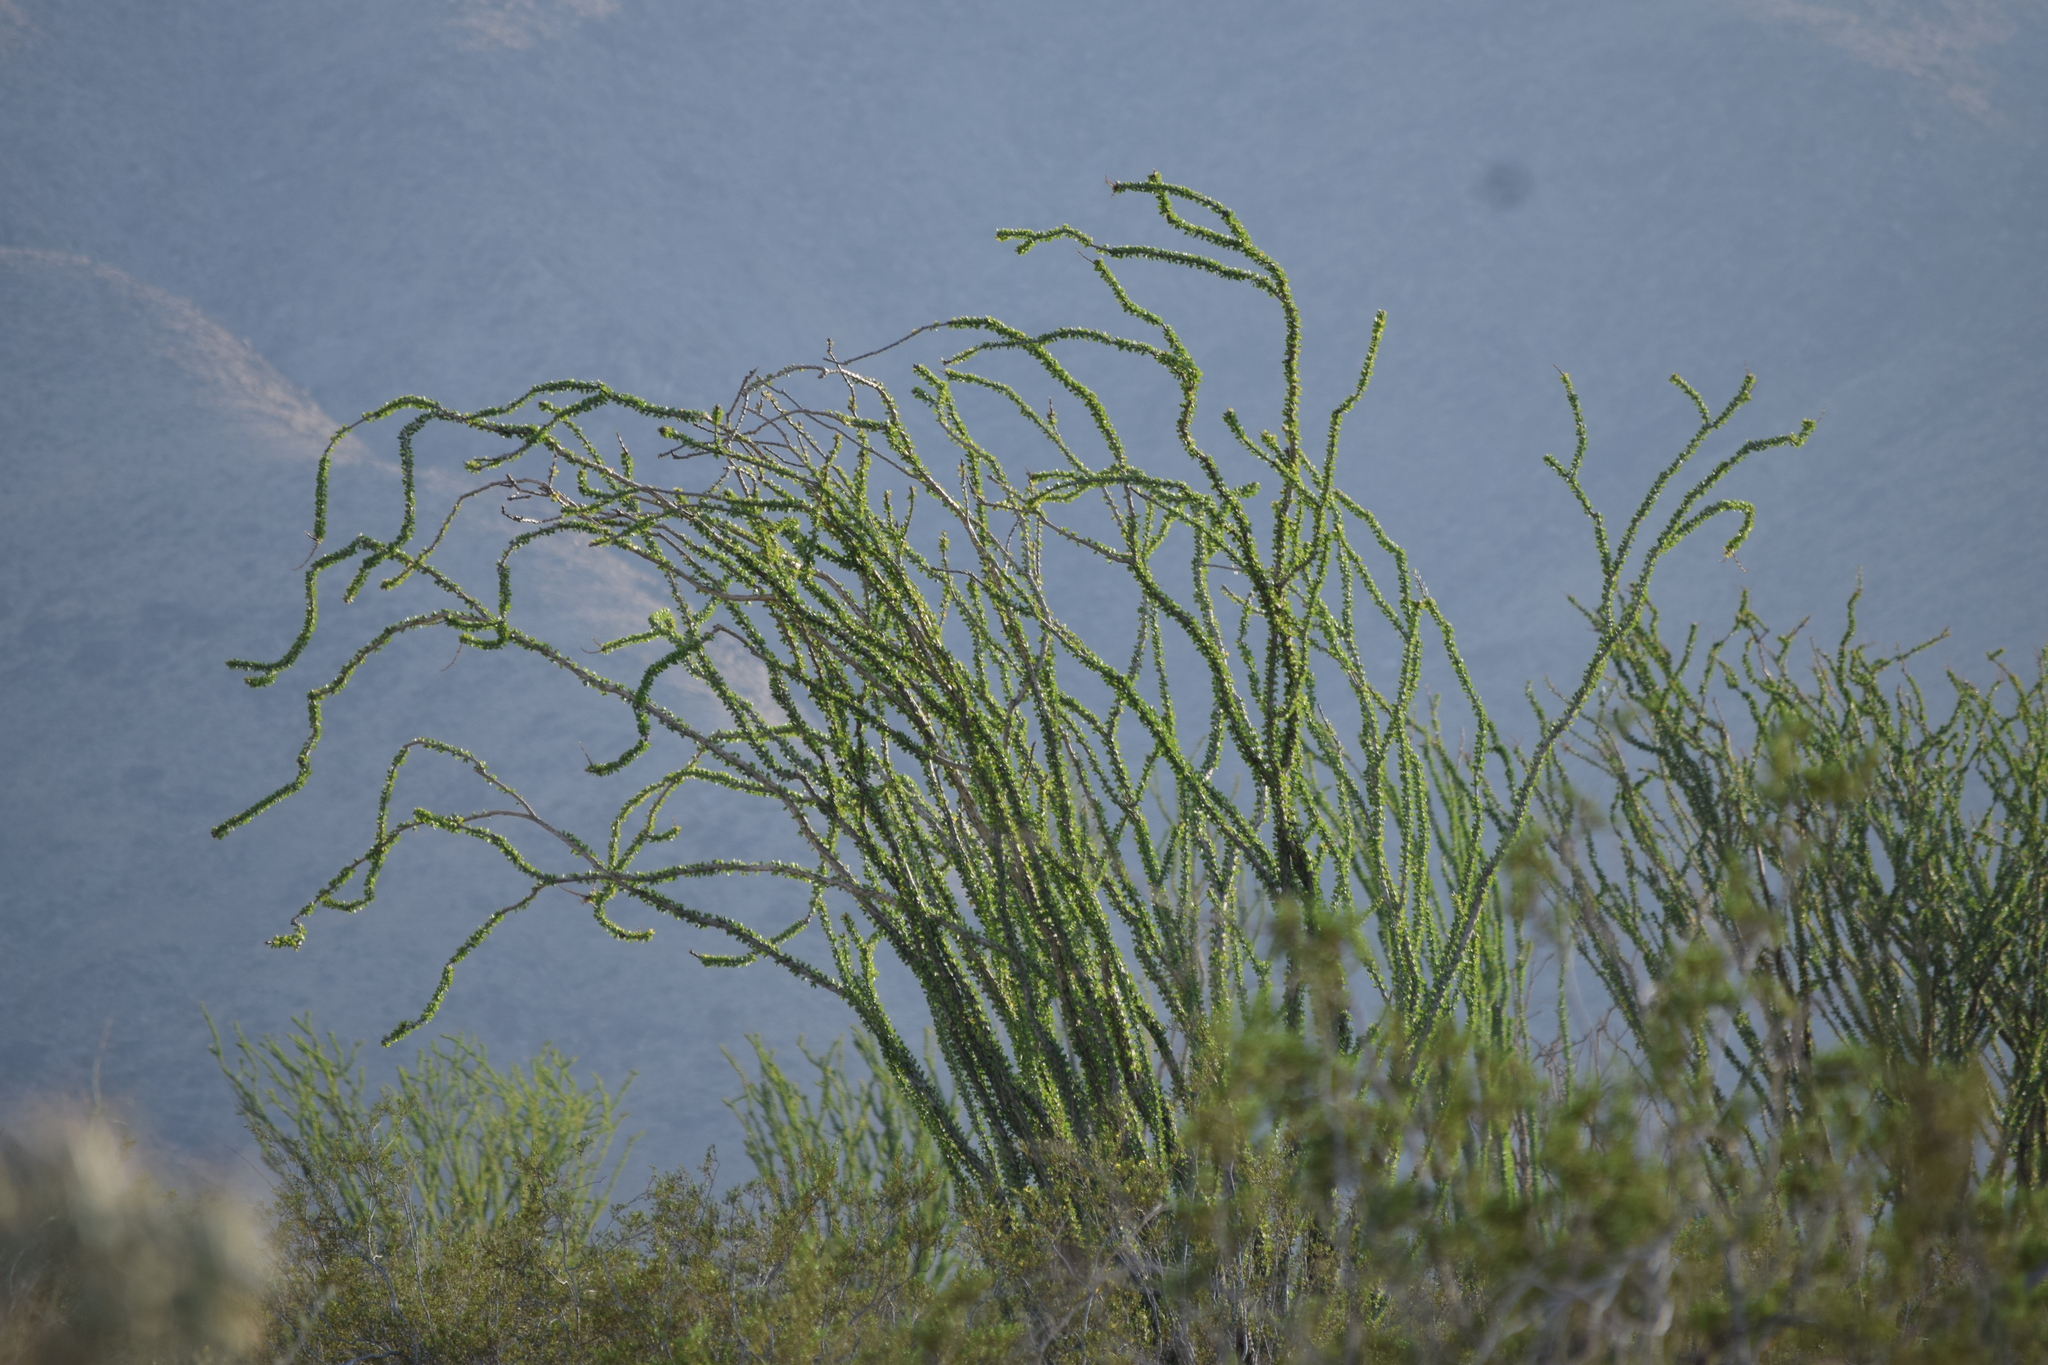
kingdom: Plantae
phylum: Tracheophyta
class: Magnoliopsida
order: Ericales
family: Fouquieriaceae
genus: Fouquieria
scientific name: Fouquieria splendens
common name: Vine-cactus
